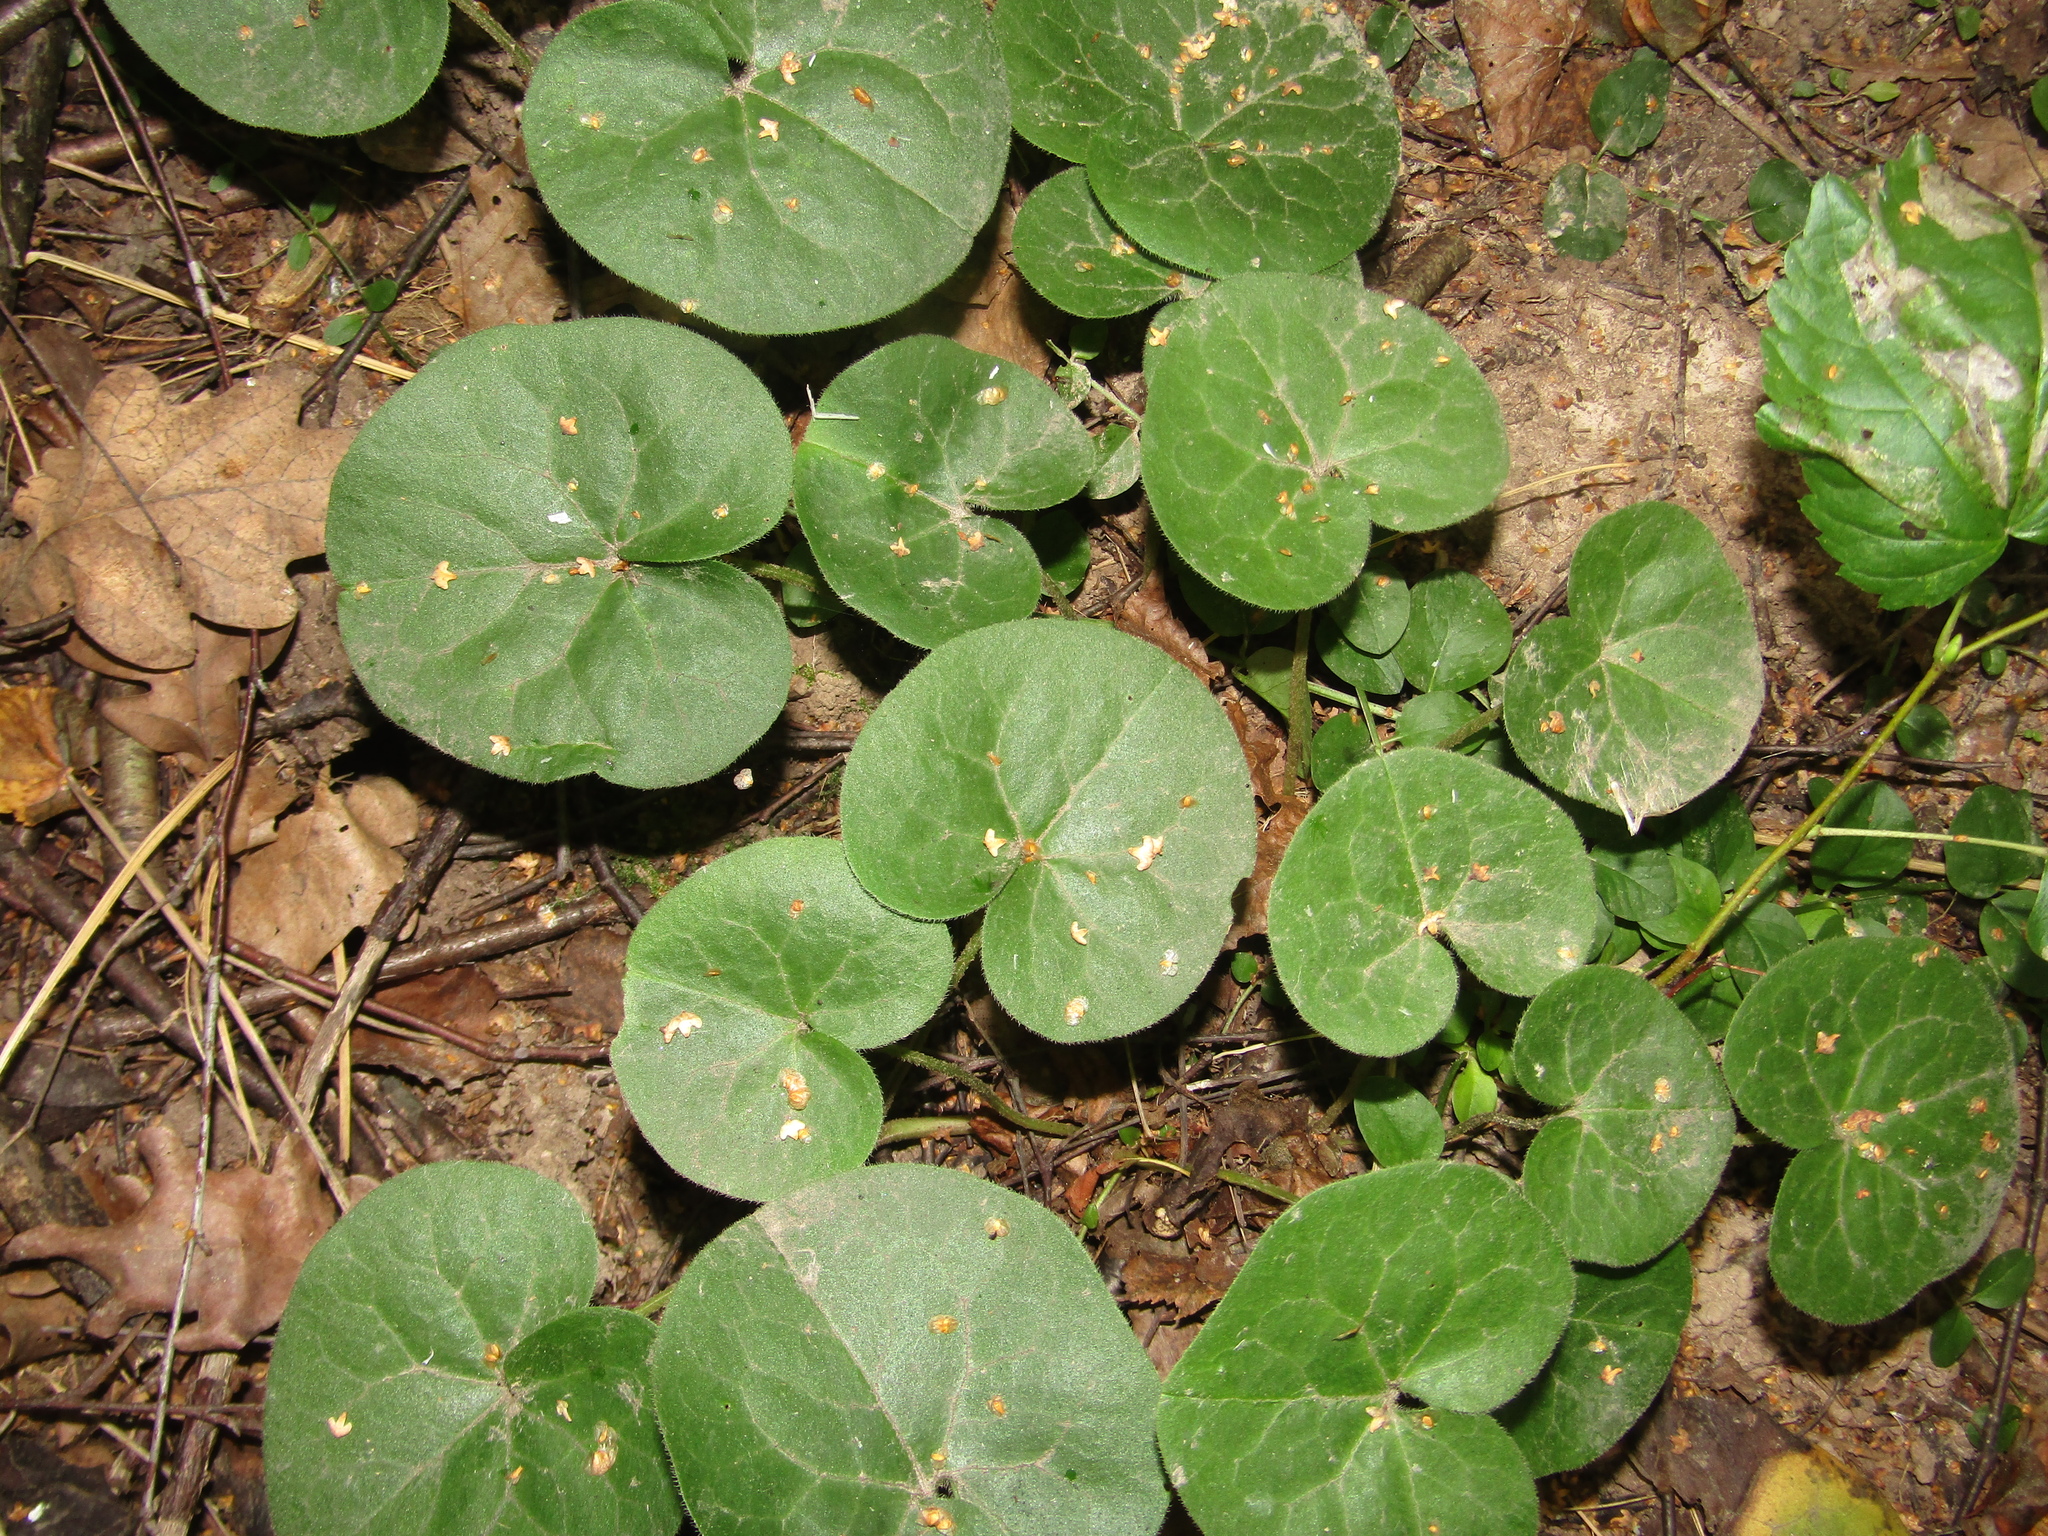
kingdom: Plantae
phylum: Tracheophyta
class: Magnoliopsida
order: Piperales
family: Aristolochiaceae
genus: Asarum
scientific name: Asarum europaeum
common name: Asarabacca
